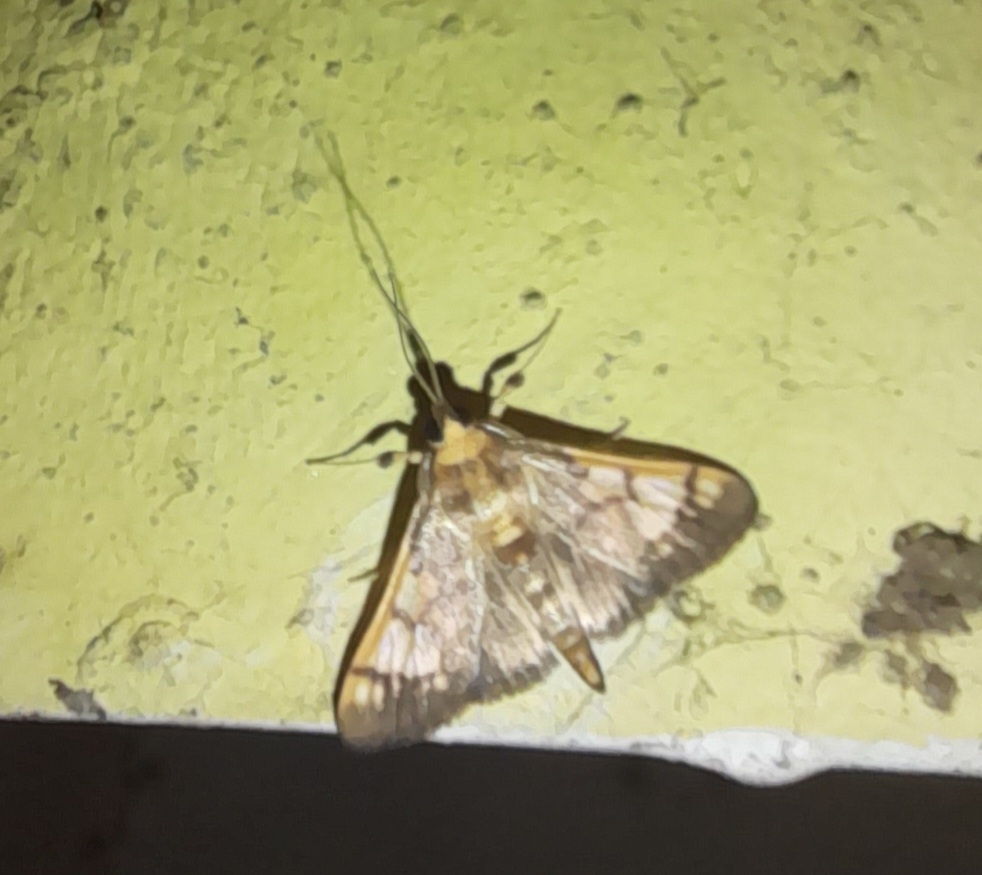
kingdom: Animalia
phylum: Arthropoda
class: Insecta
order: Lepidoptera
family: Crambidae
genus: Ulopeza
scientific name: Ulopeza idyalis
